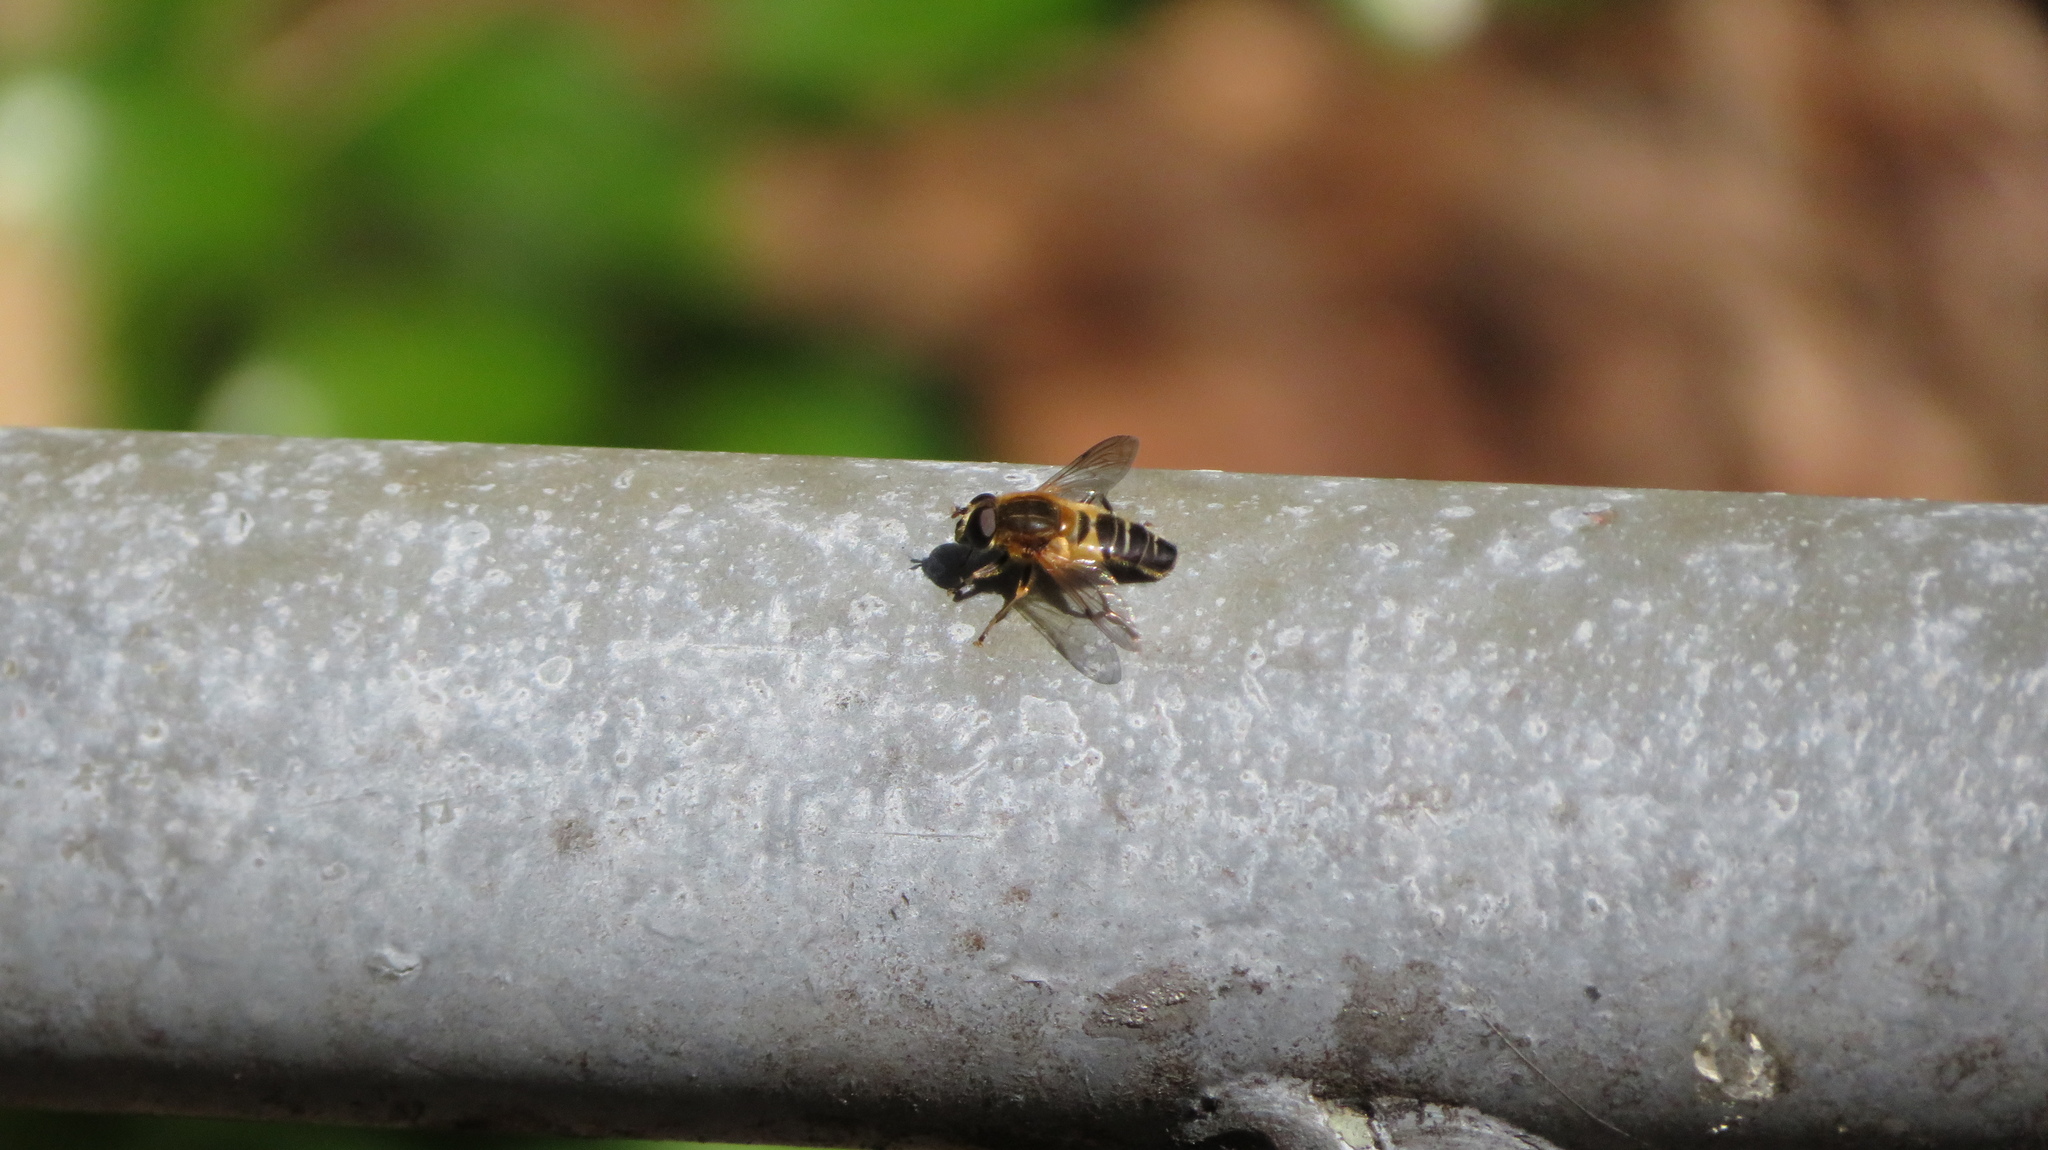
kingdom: Animalia
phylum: Arthropoda
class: Insecta
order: Diptera
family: Syrphidae
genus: Helophilus
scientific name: Helophilus eristaloideus
